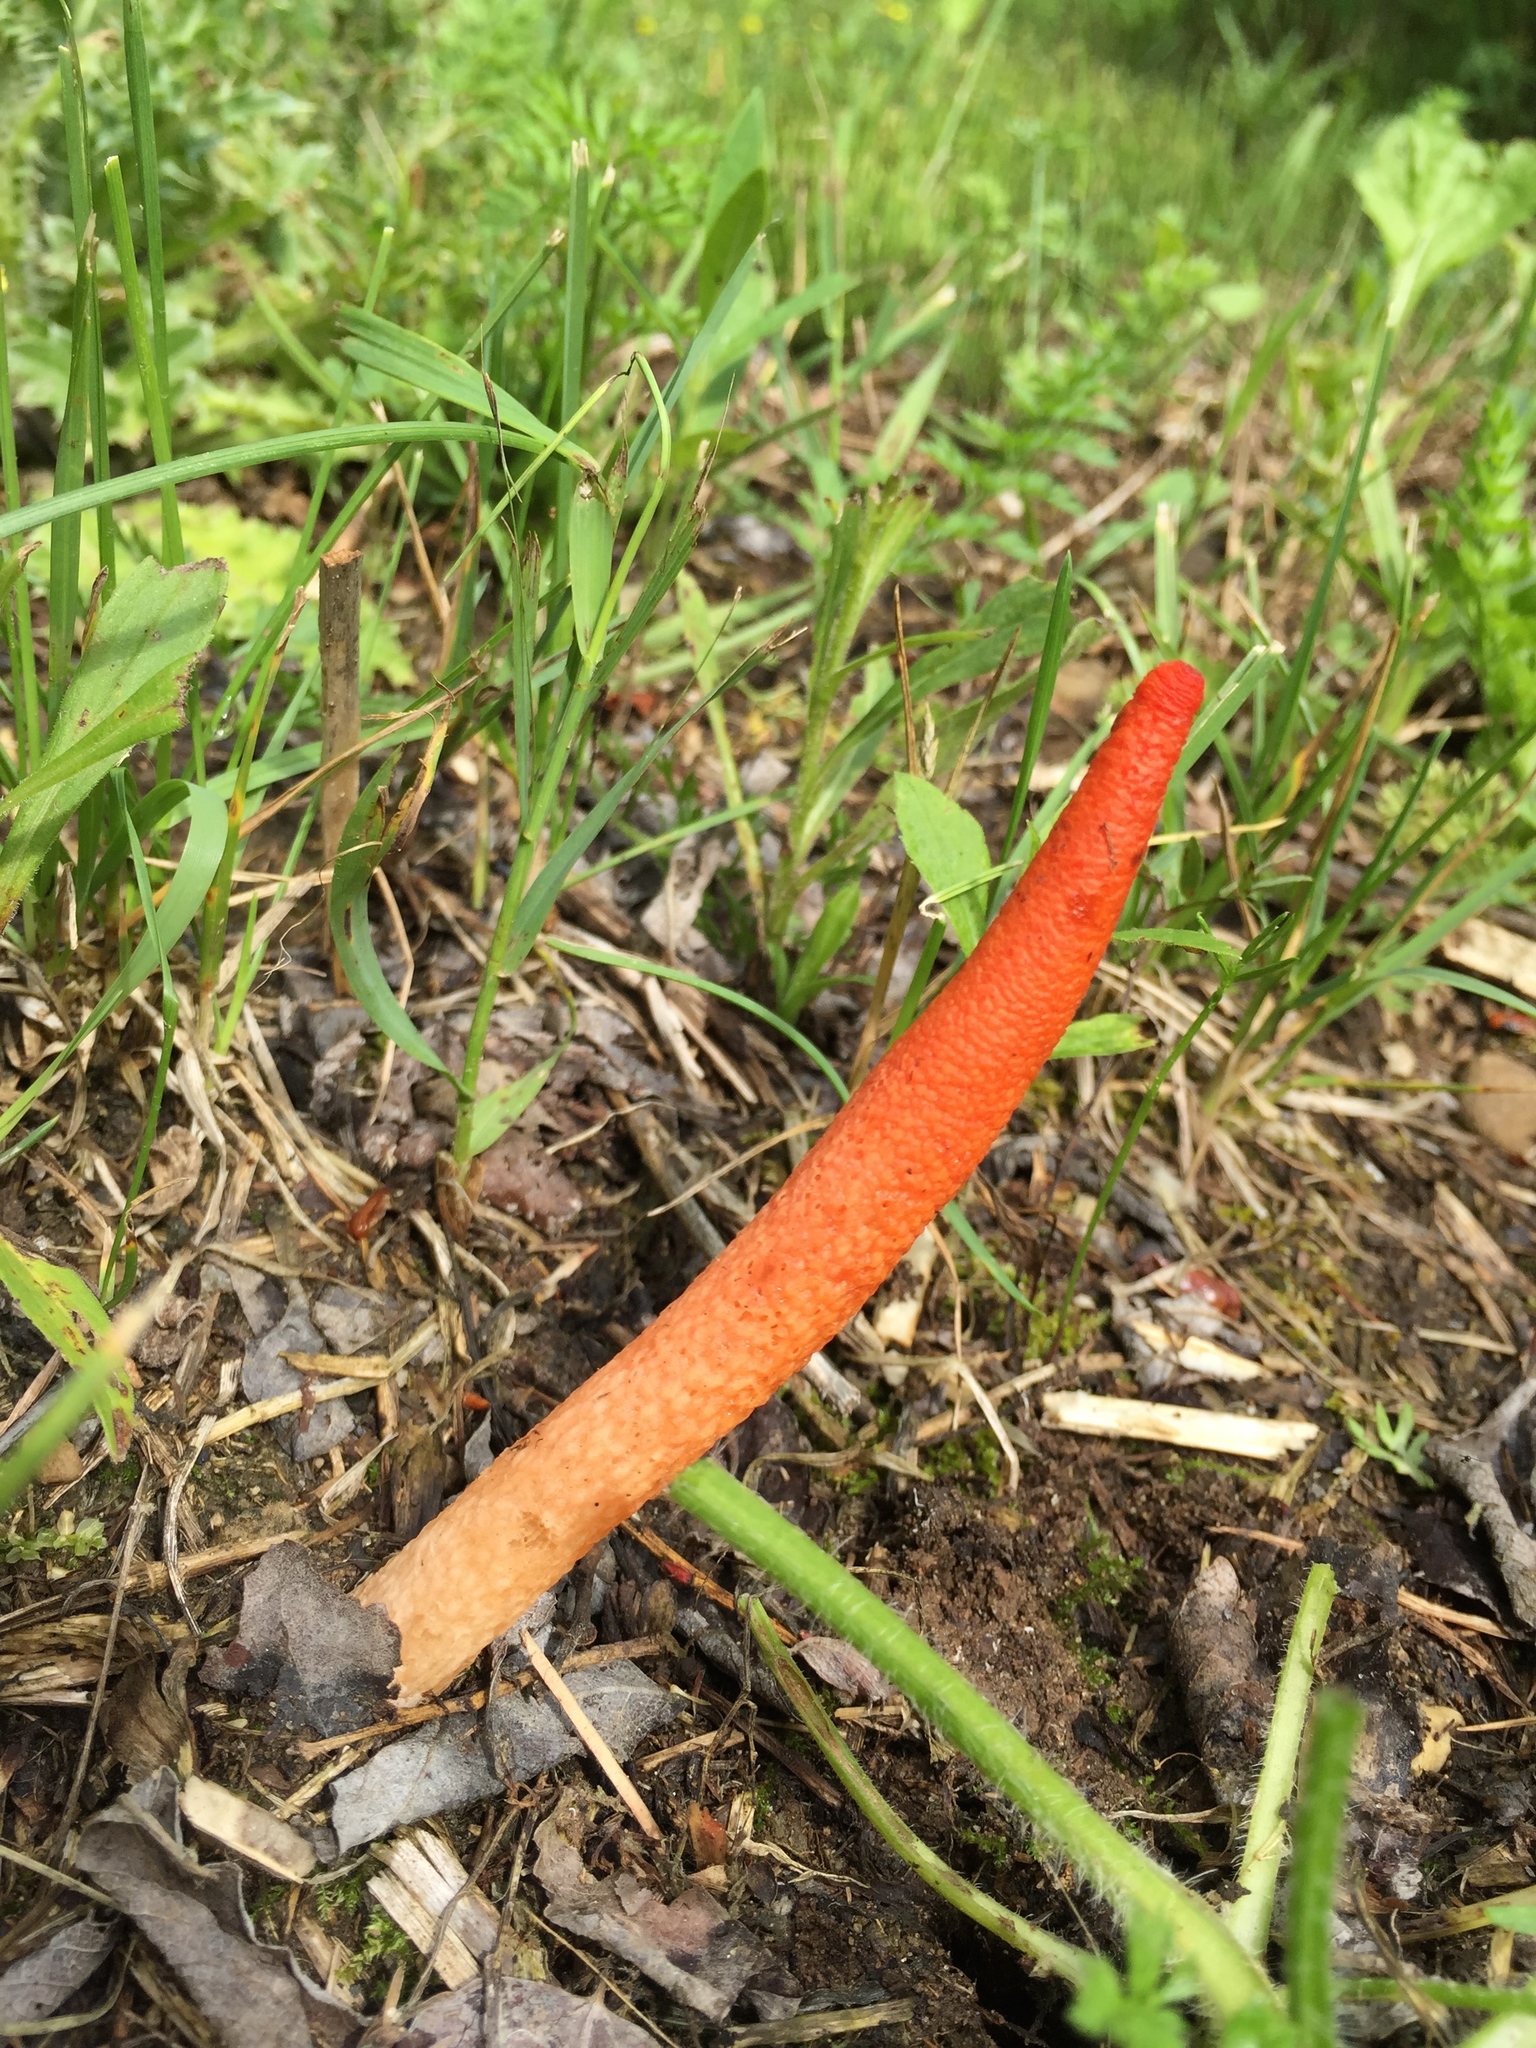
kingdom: Fungi
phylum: Basidiomycota
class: Agaricomycetes
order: Phallales
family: Phallaceae
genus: Mutinus
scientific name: Mutinus elegans
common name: Devil's dipstick
